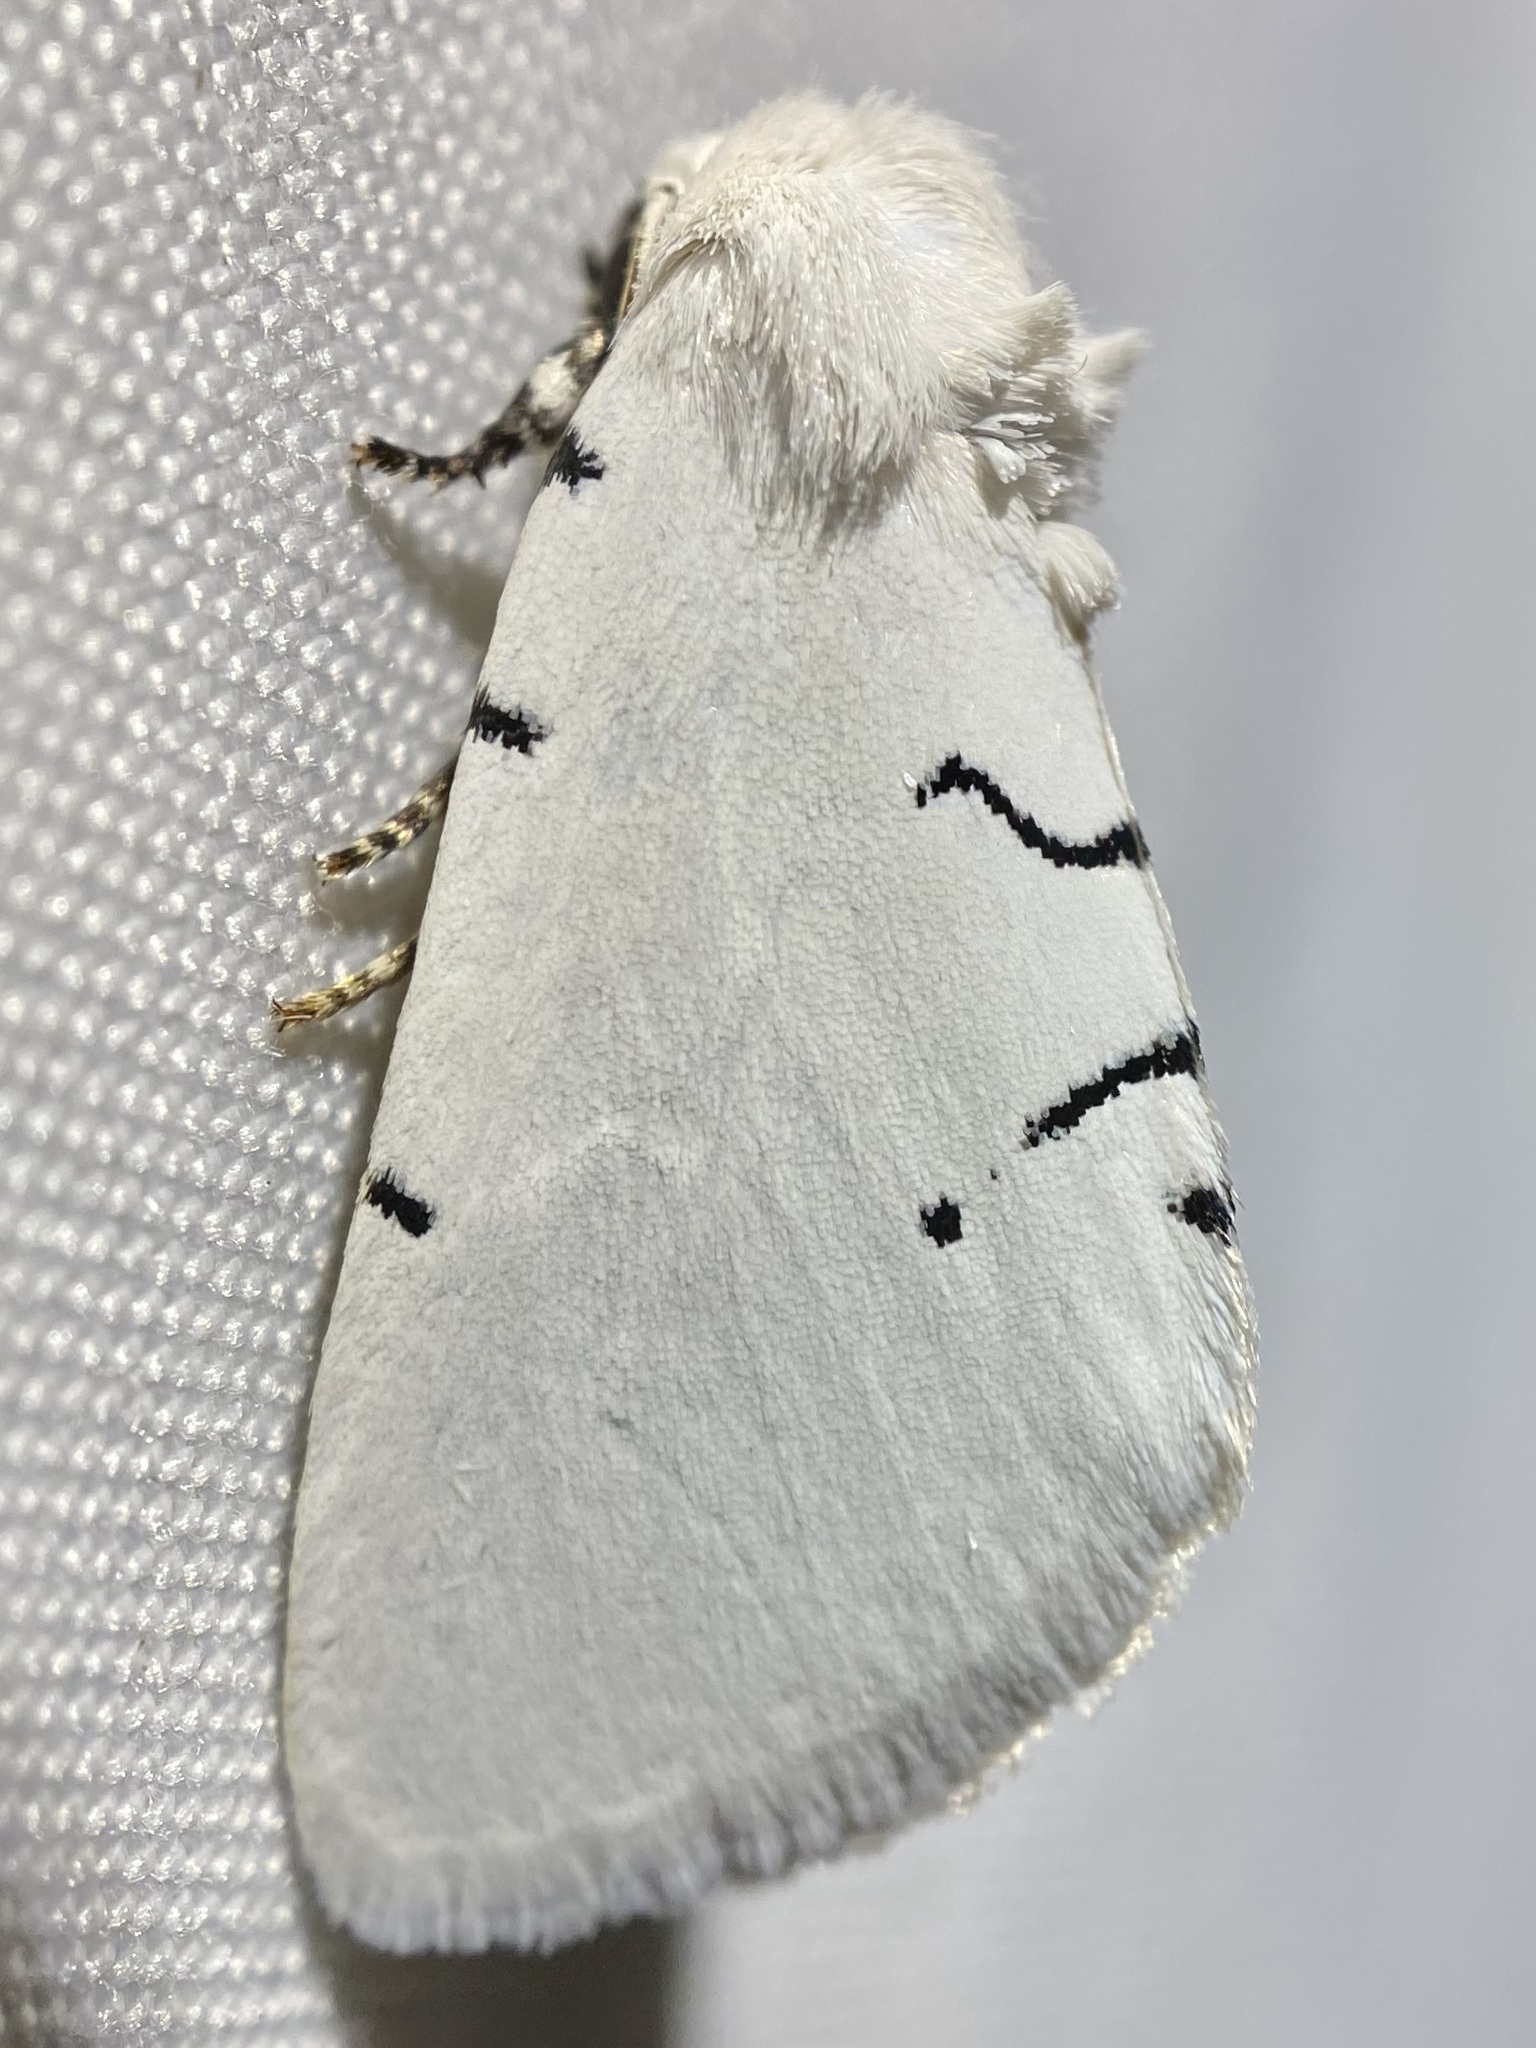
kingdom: Animalia
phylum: Arthropoda
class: Insecta
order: Lepidoptera
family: Noctuidae
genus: Hemioslaria
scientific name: Hemioslaria pima
